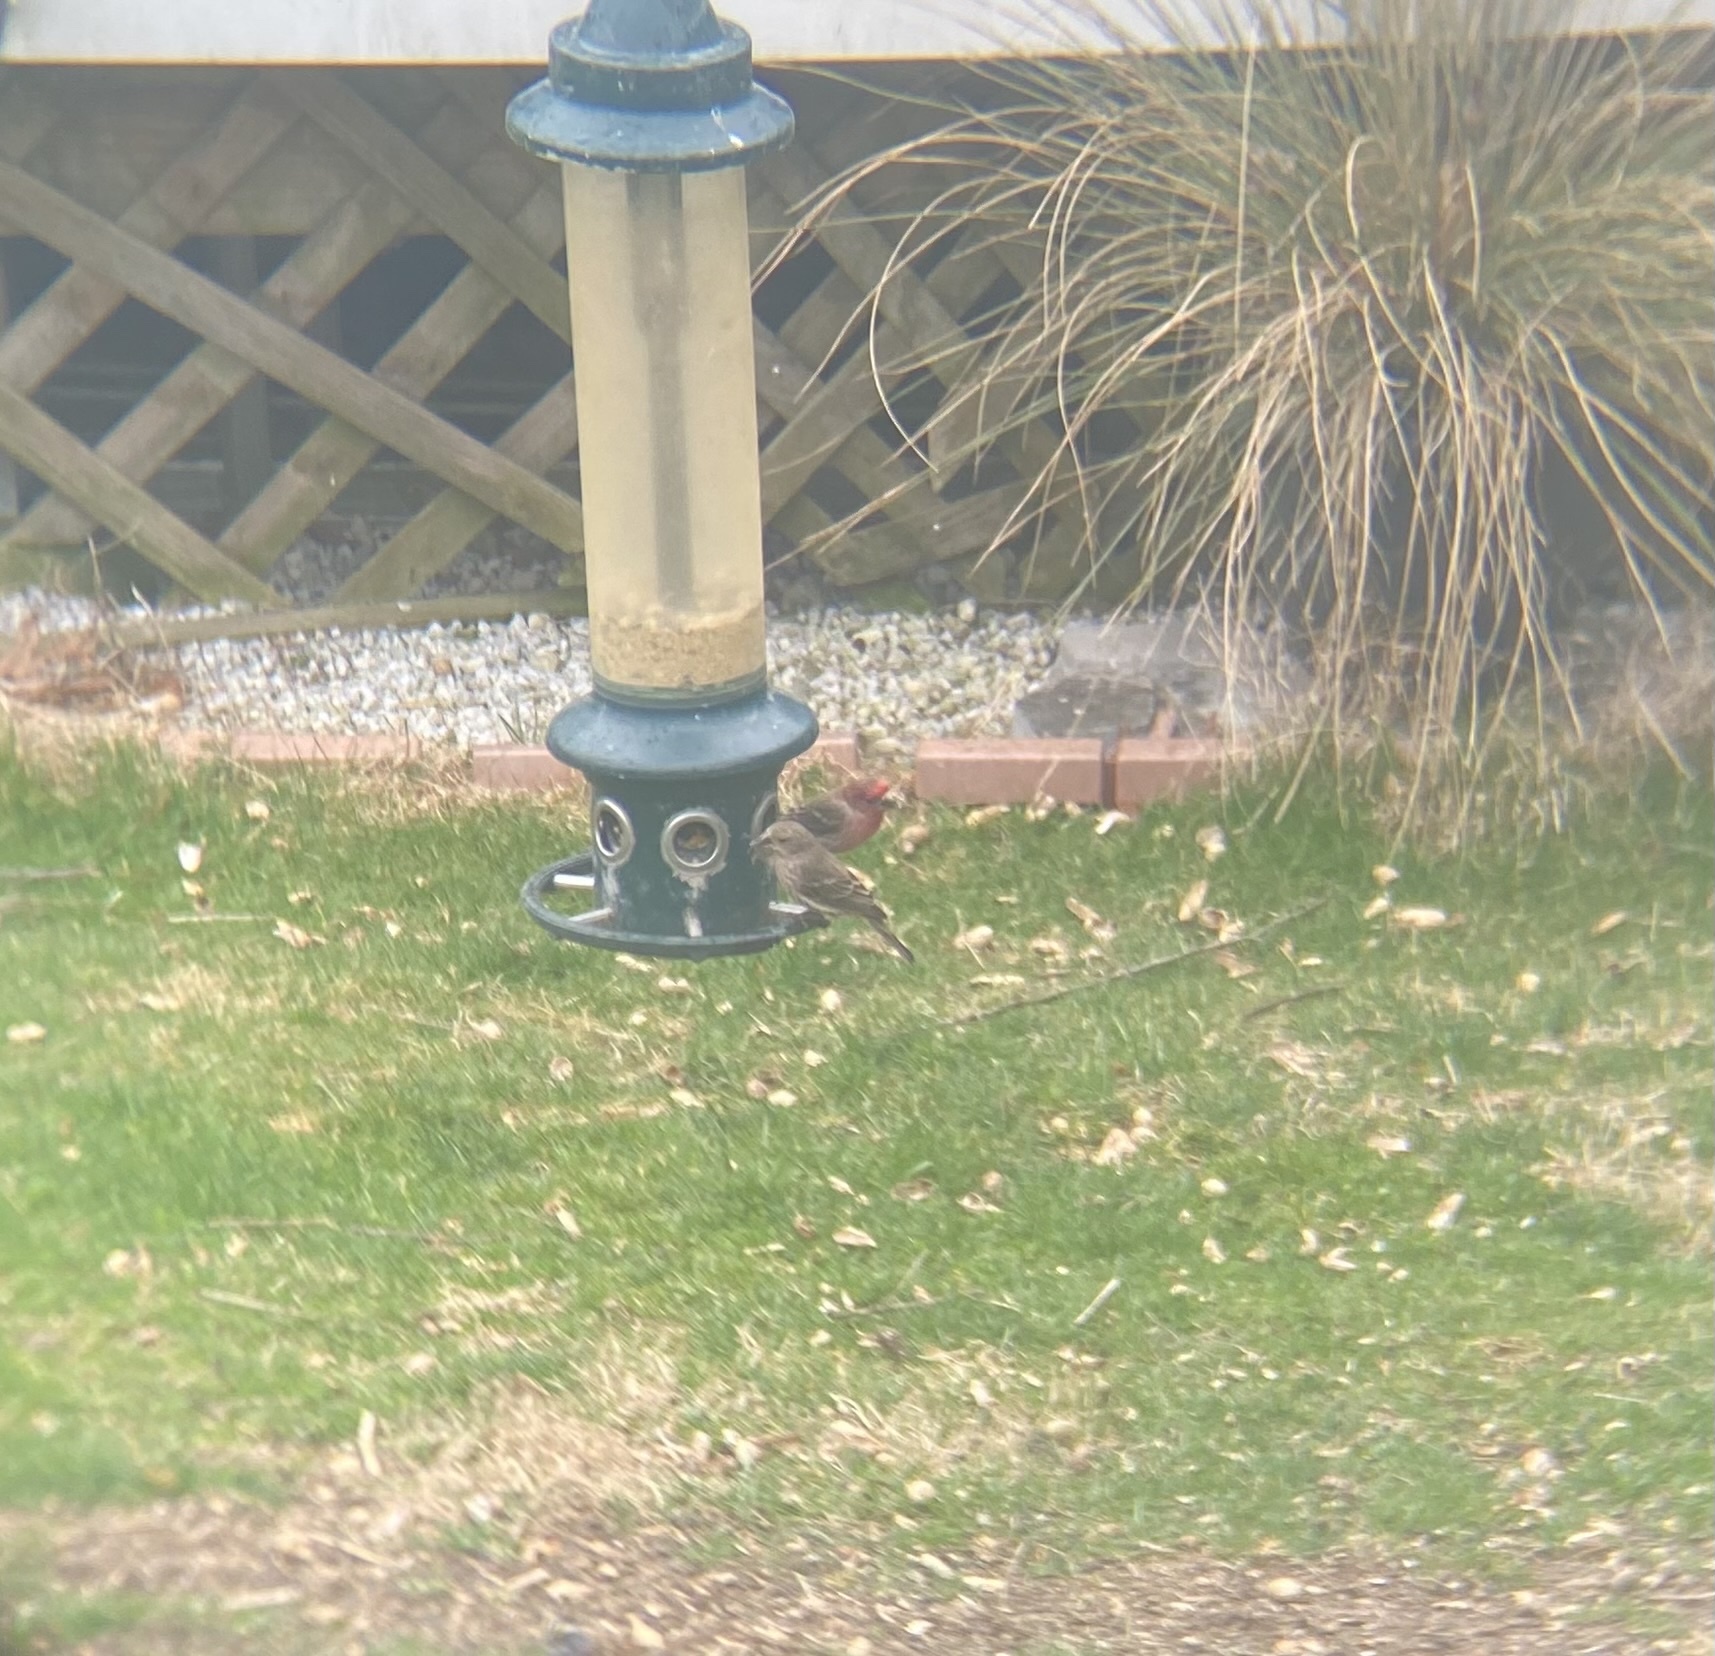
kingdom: Animalia
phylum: Chordata
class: Aves
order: Passeriformes
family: Fringillidae
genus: Haemorhous
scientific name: Haemorhous mexicanus
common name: House finch
